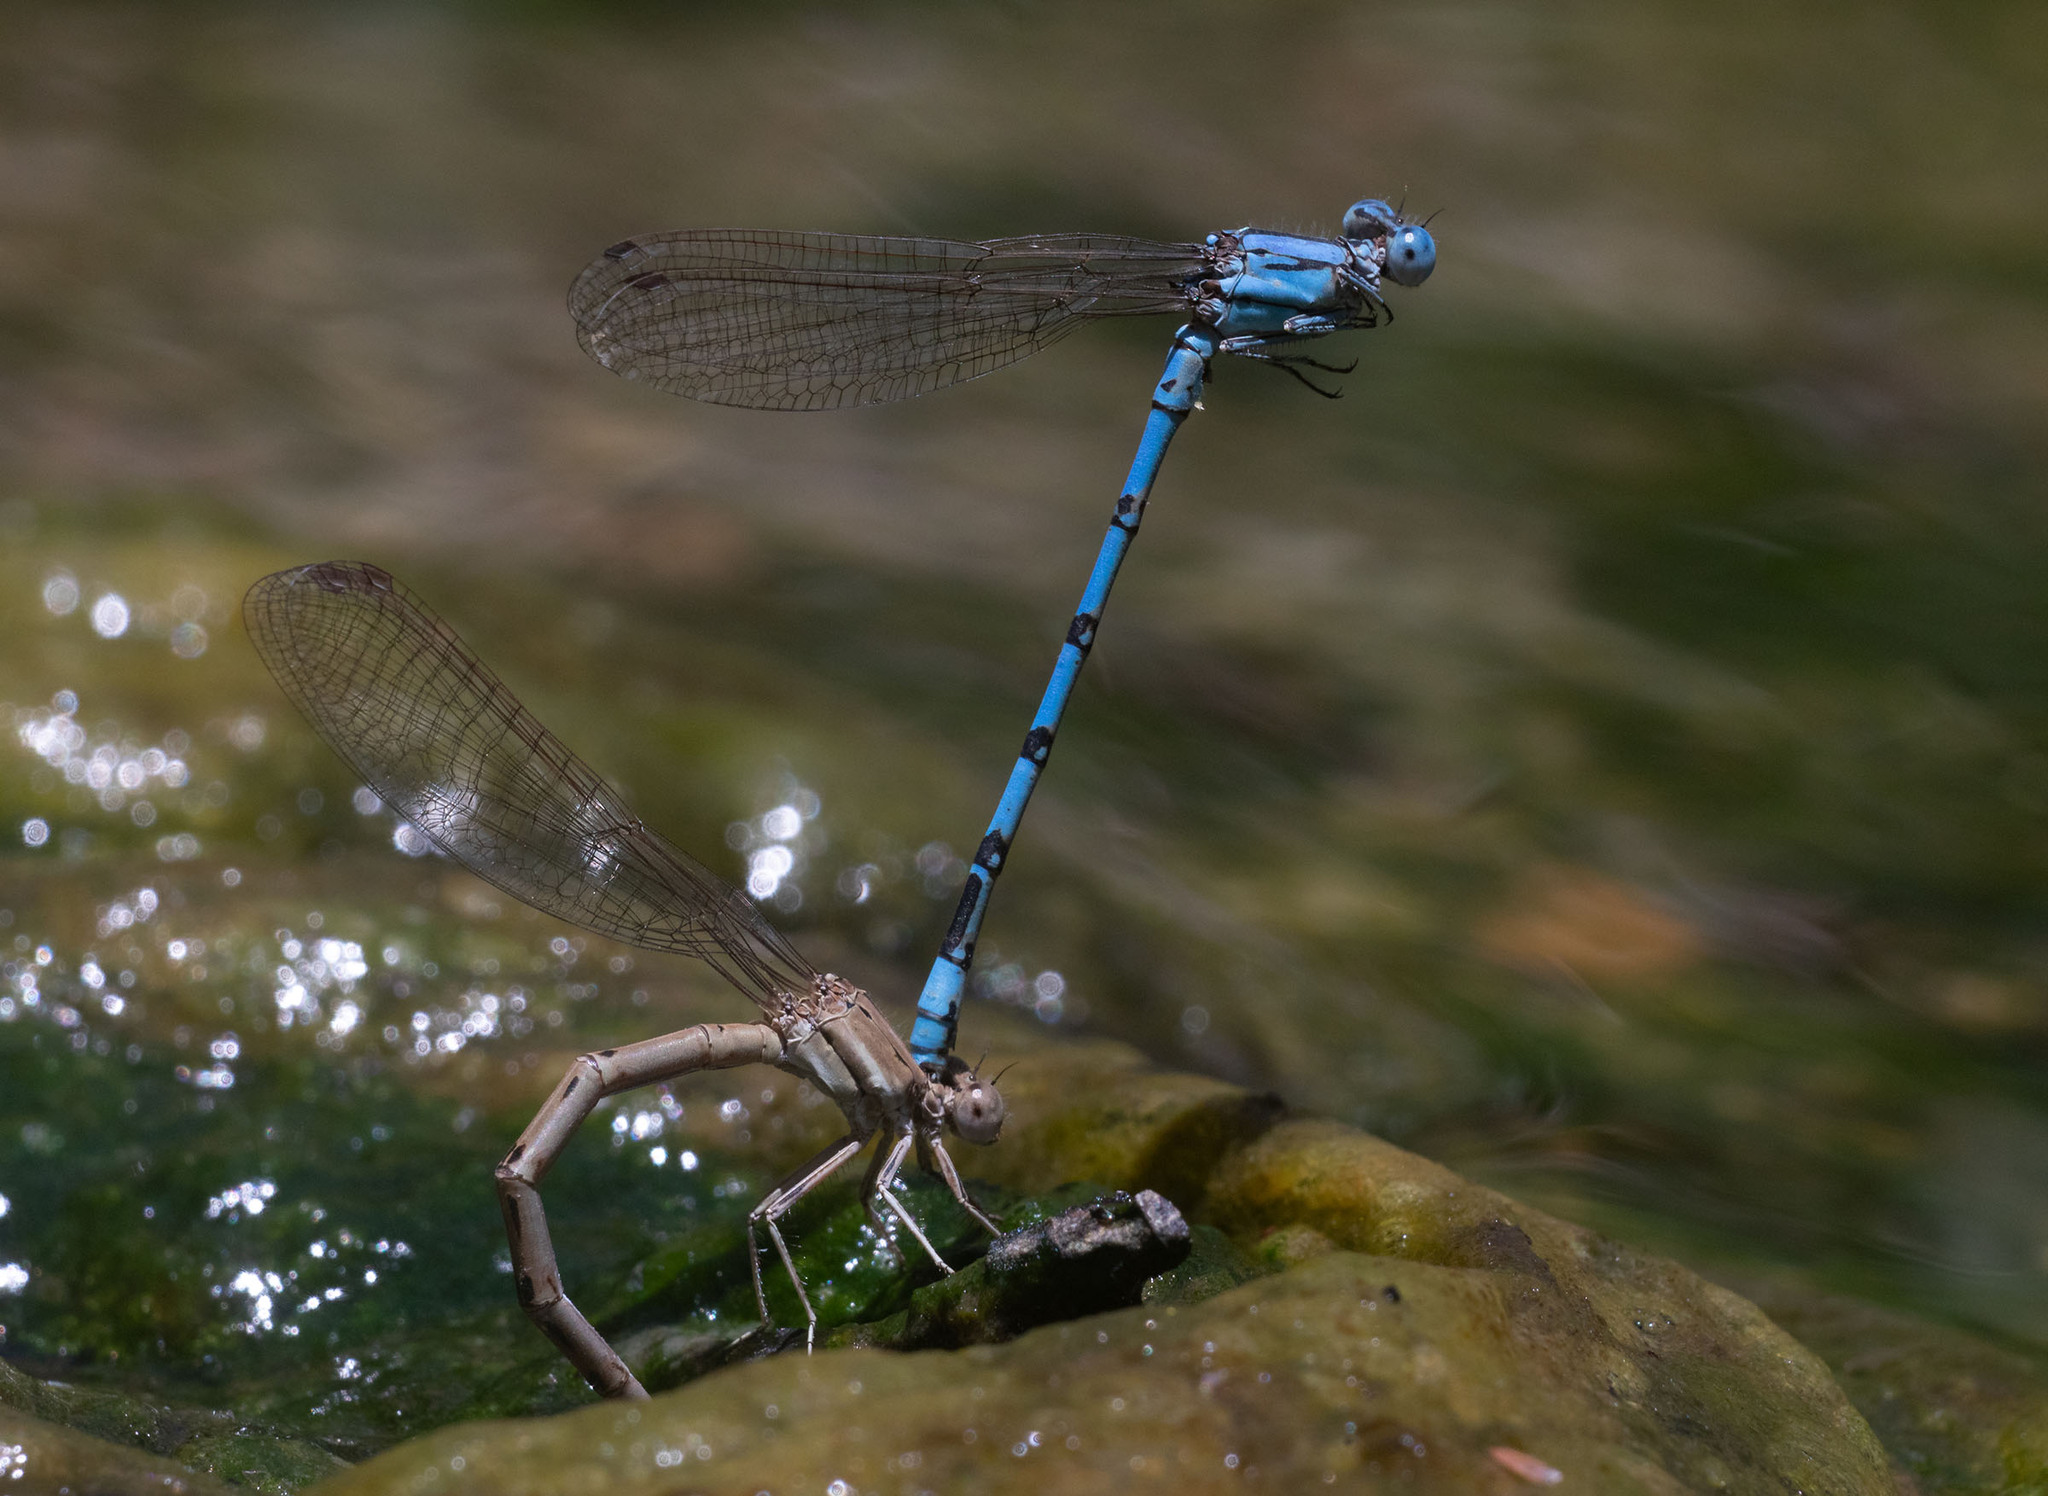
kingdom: Animalia
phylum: Arthropoda
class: Insecta
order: Odonata
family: Coenagrionidae
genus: Argia
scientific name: Argia nahuana
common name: Aztec dancer
